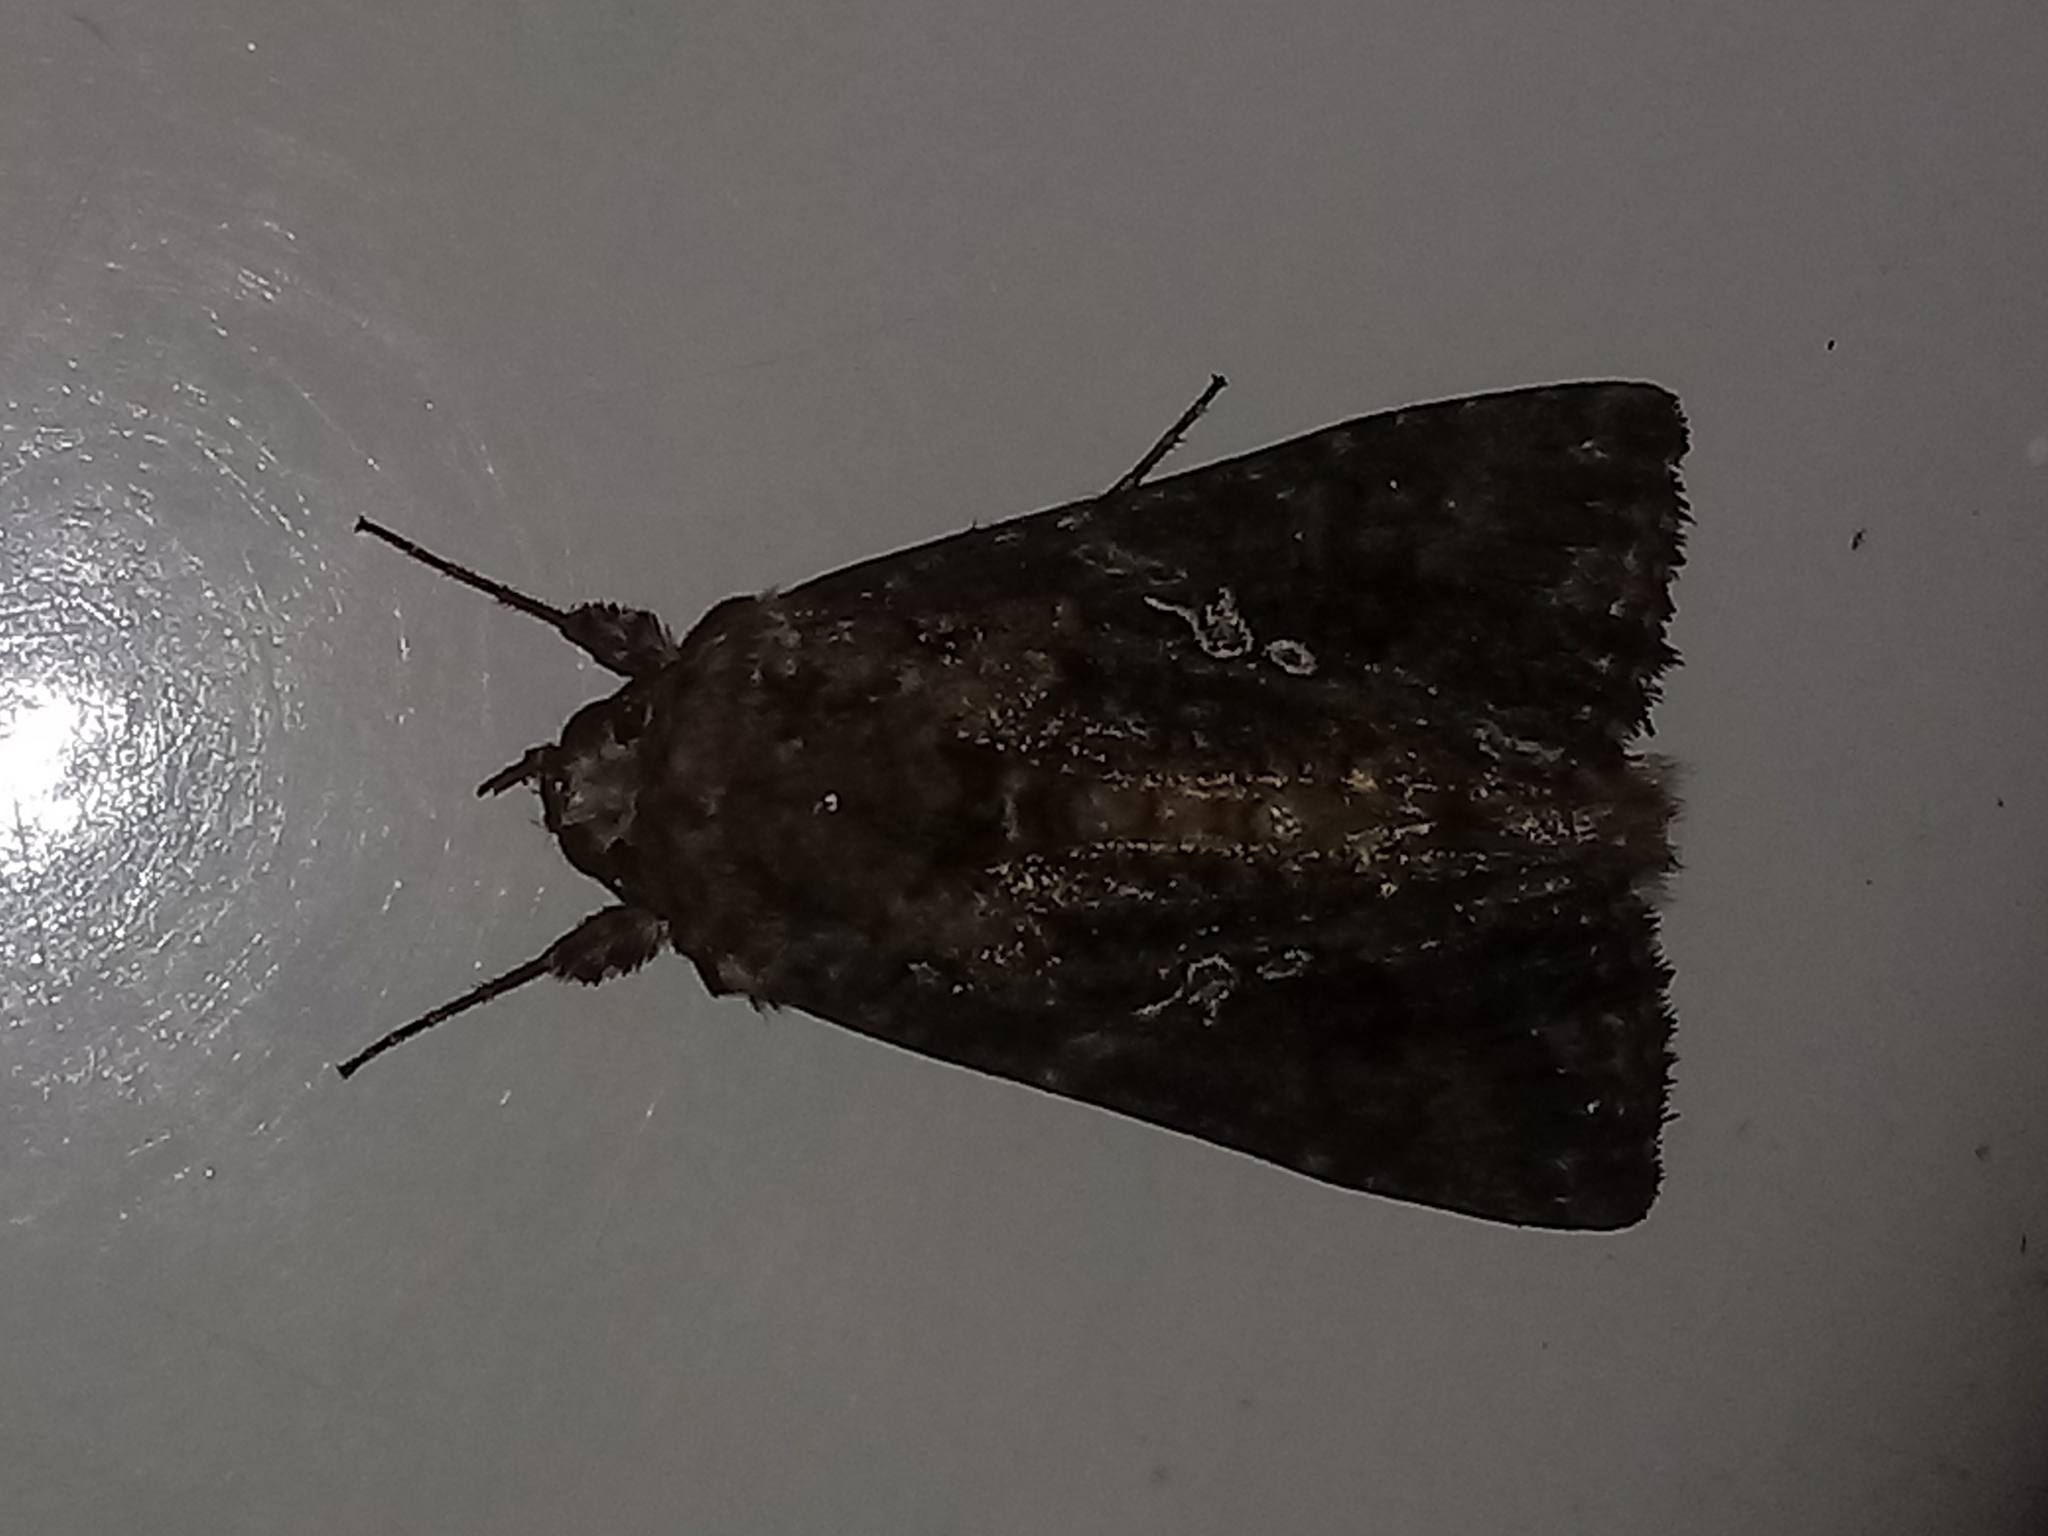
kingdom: Animalia
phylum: Arthropoda
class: Insecta
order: Lepidoptera
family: Noctuidae
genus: Trichoplusia
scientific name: Trichoplusia ni
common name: Ni moth
